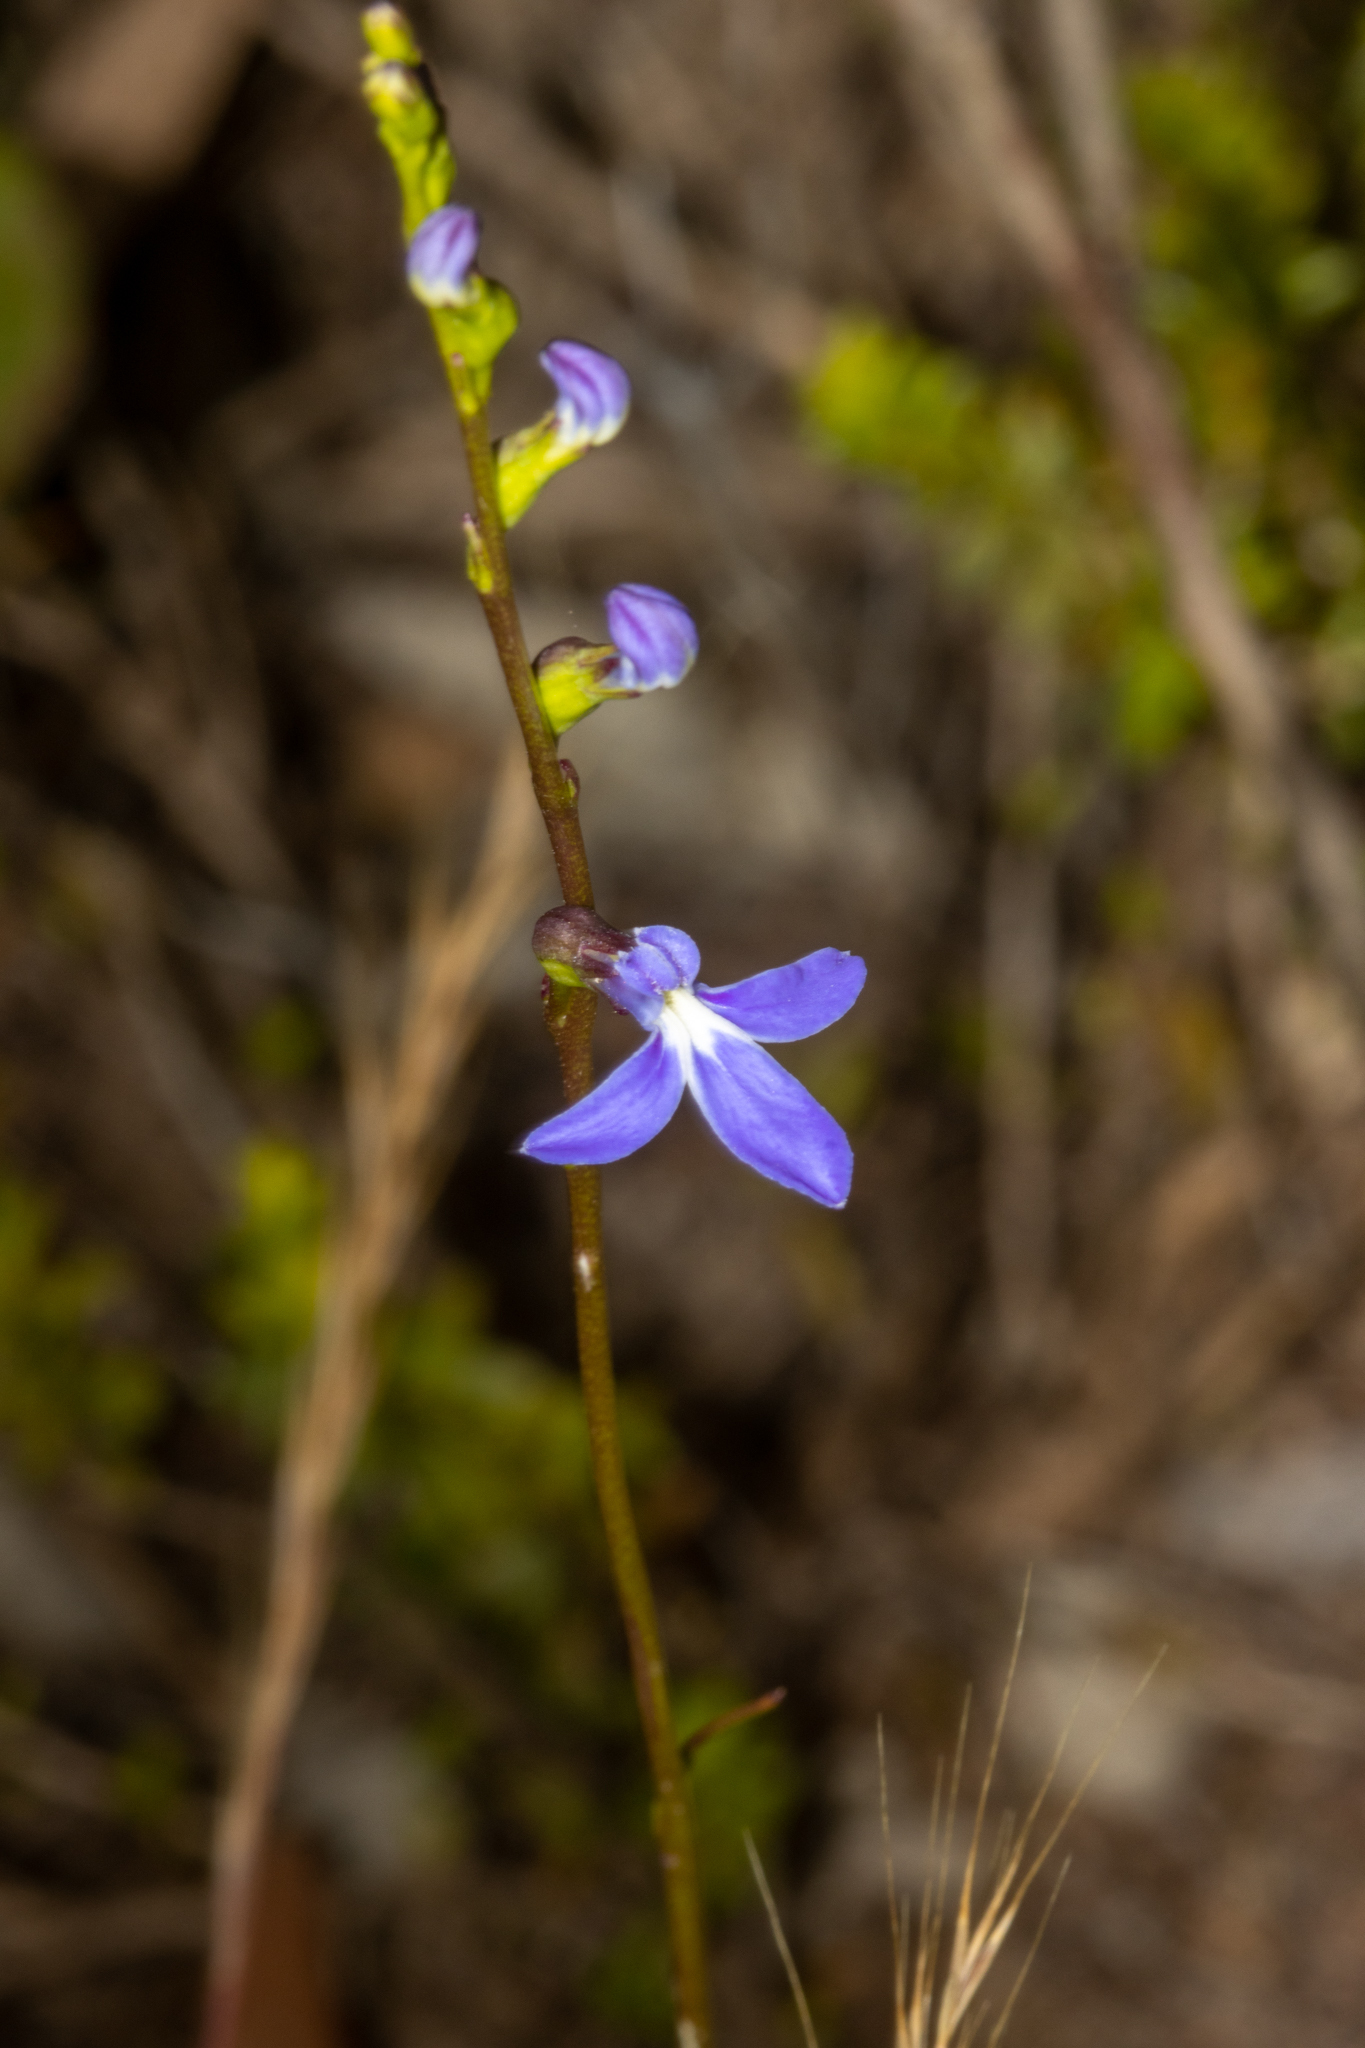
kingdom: Plantae
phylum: Tracheophyta
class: Magnoliopsida
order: Asterales
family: Campanulaceae
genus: Lobelia
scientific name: Lobelia gibbosa
